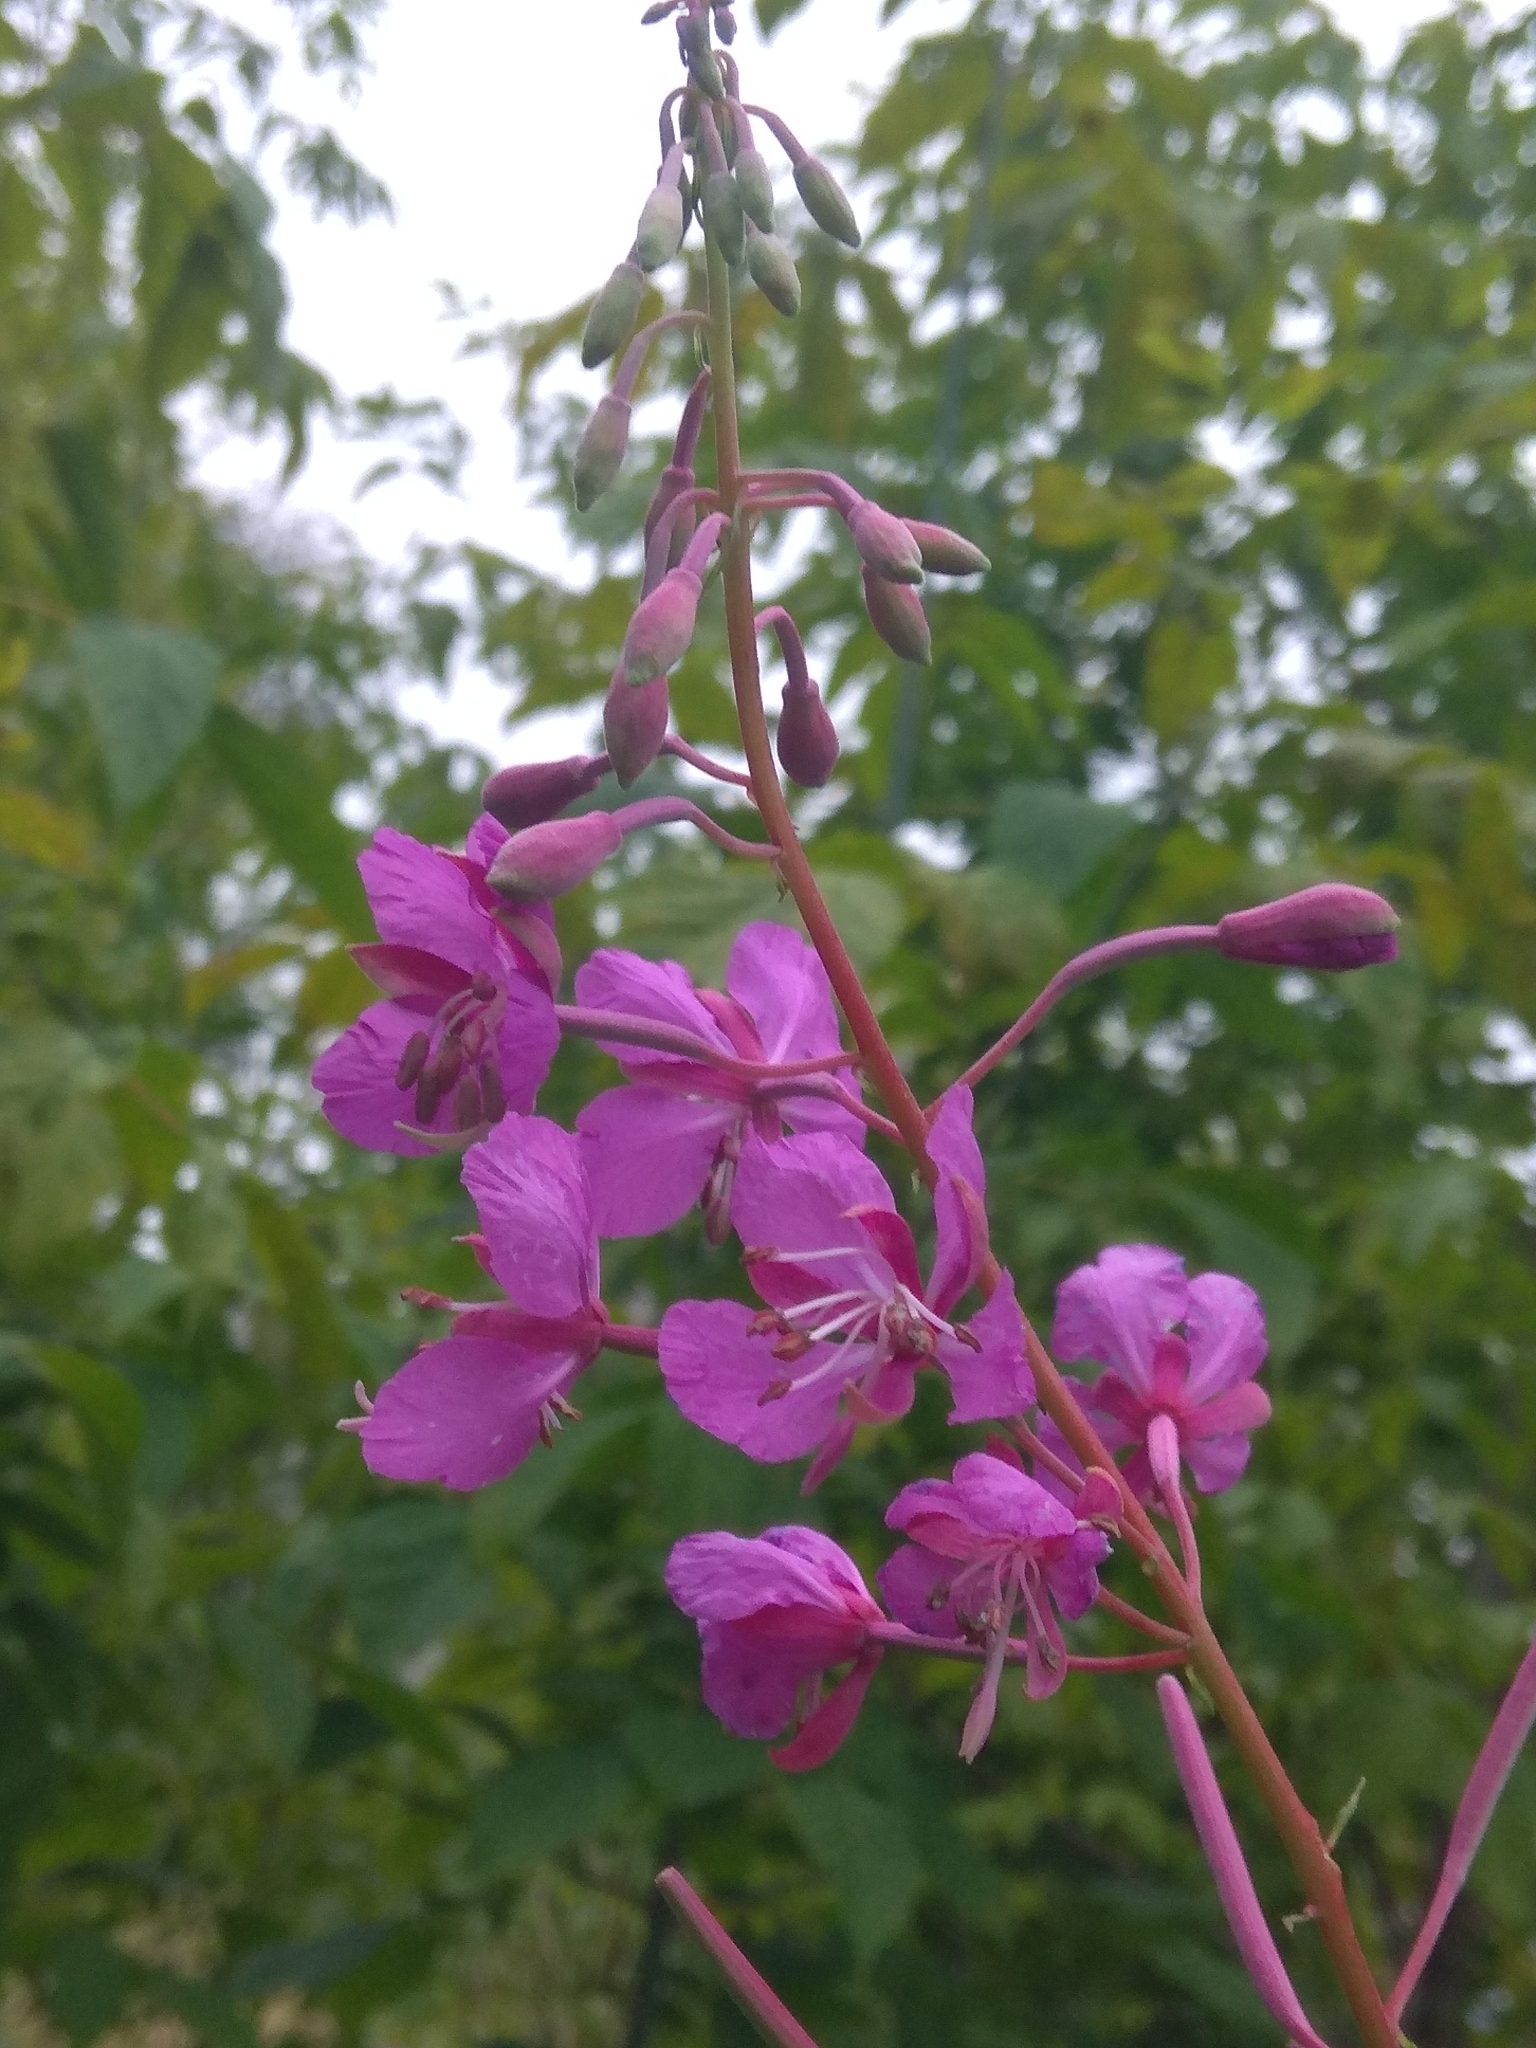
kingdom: Plantae
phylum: Tracheophyta
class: Magnoliopsida
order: Myrtales
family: Onagraceae
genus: Chamaenerion
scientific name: Chamaenerion angustifolium
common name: Fireweed
